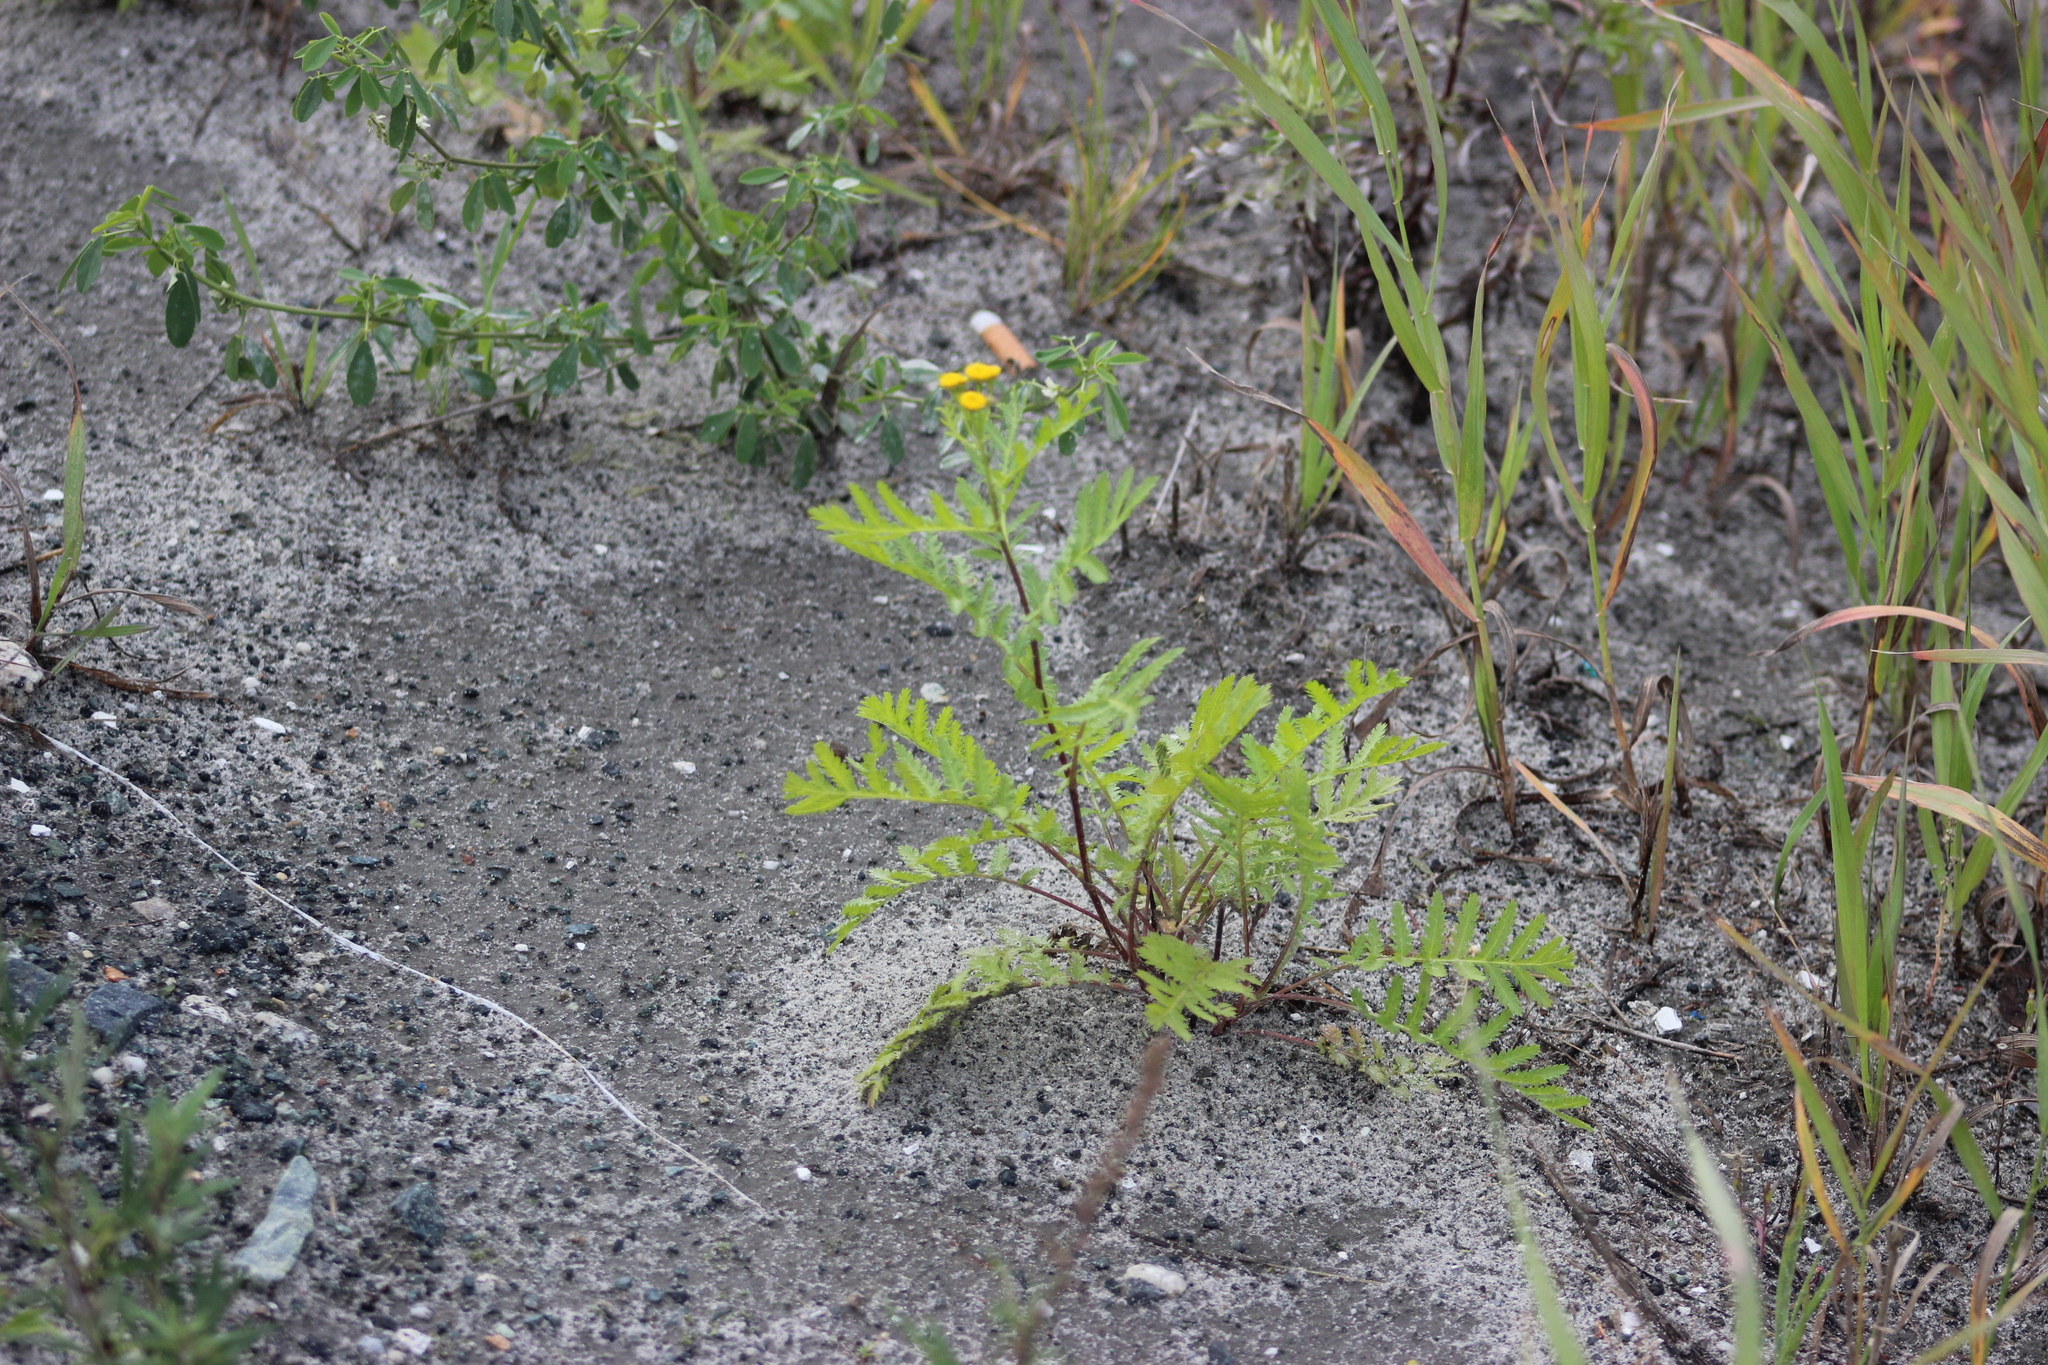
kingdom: Plantae
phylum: Tracheophyta
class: Magnoliopsida
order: Asterales
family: Asteraceae
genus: Tanacetum
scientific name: Tanacetum vulgare
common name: Common tansy
